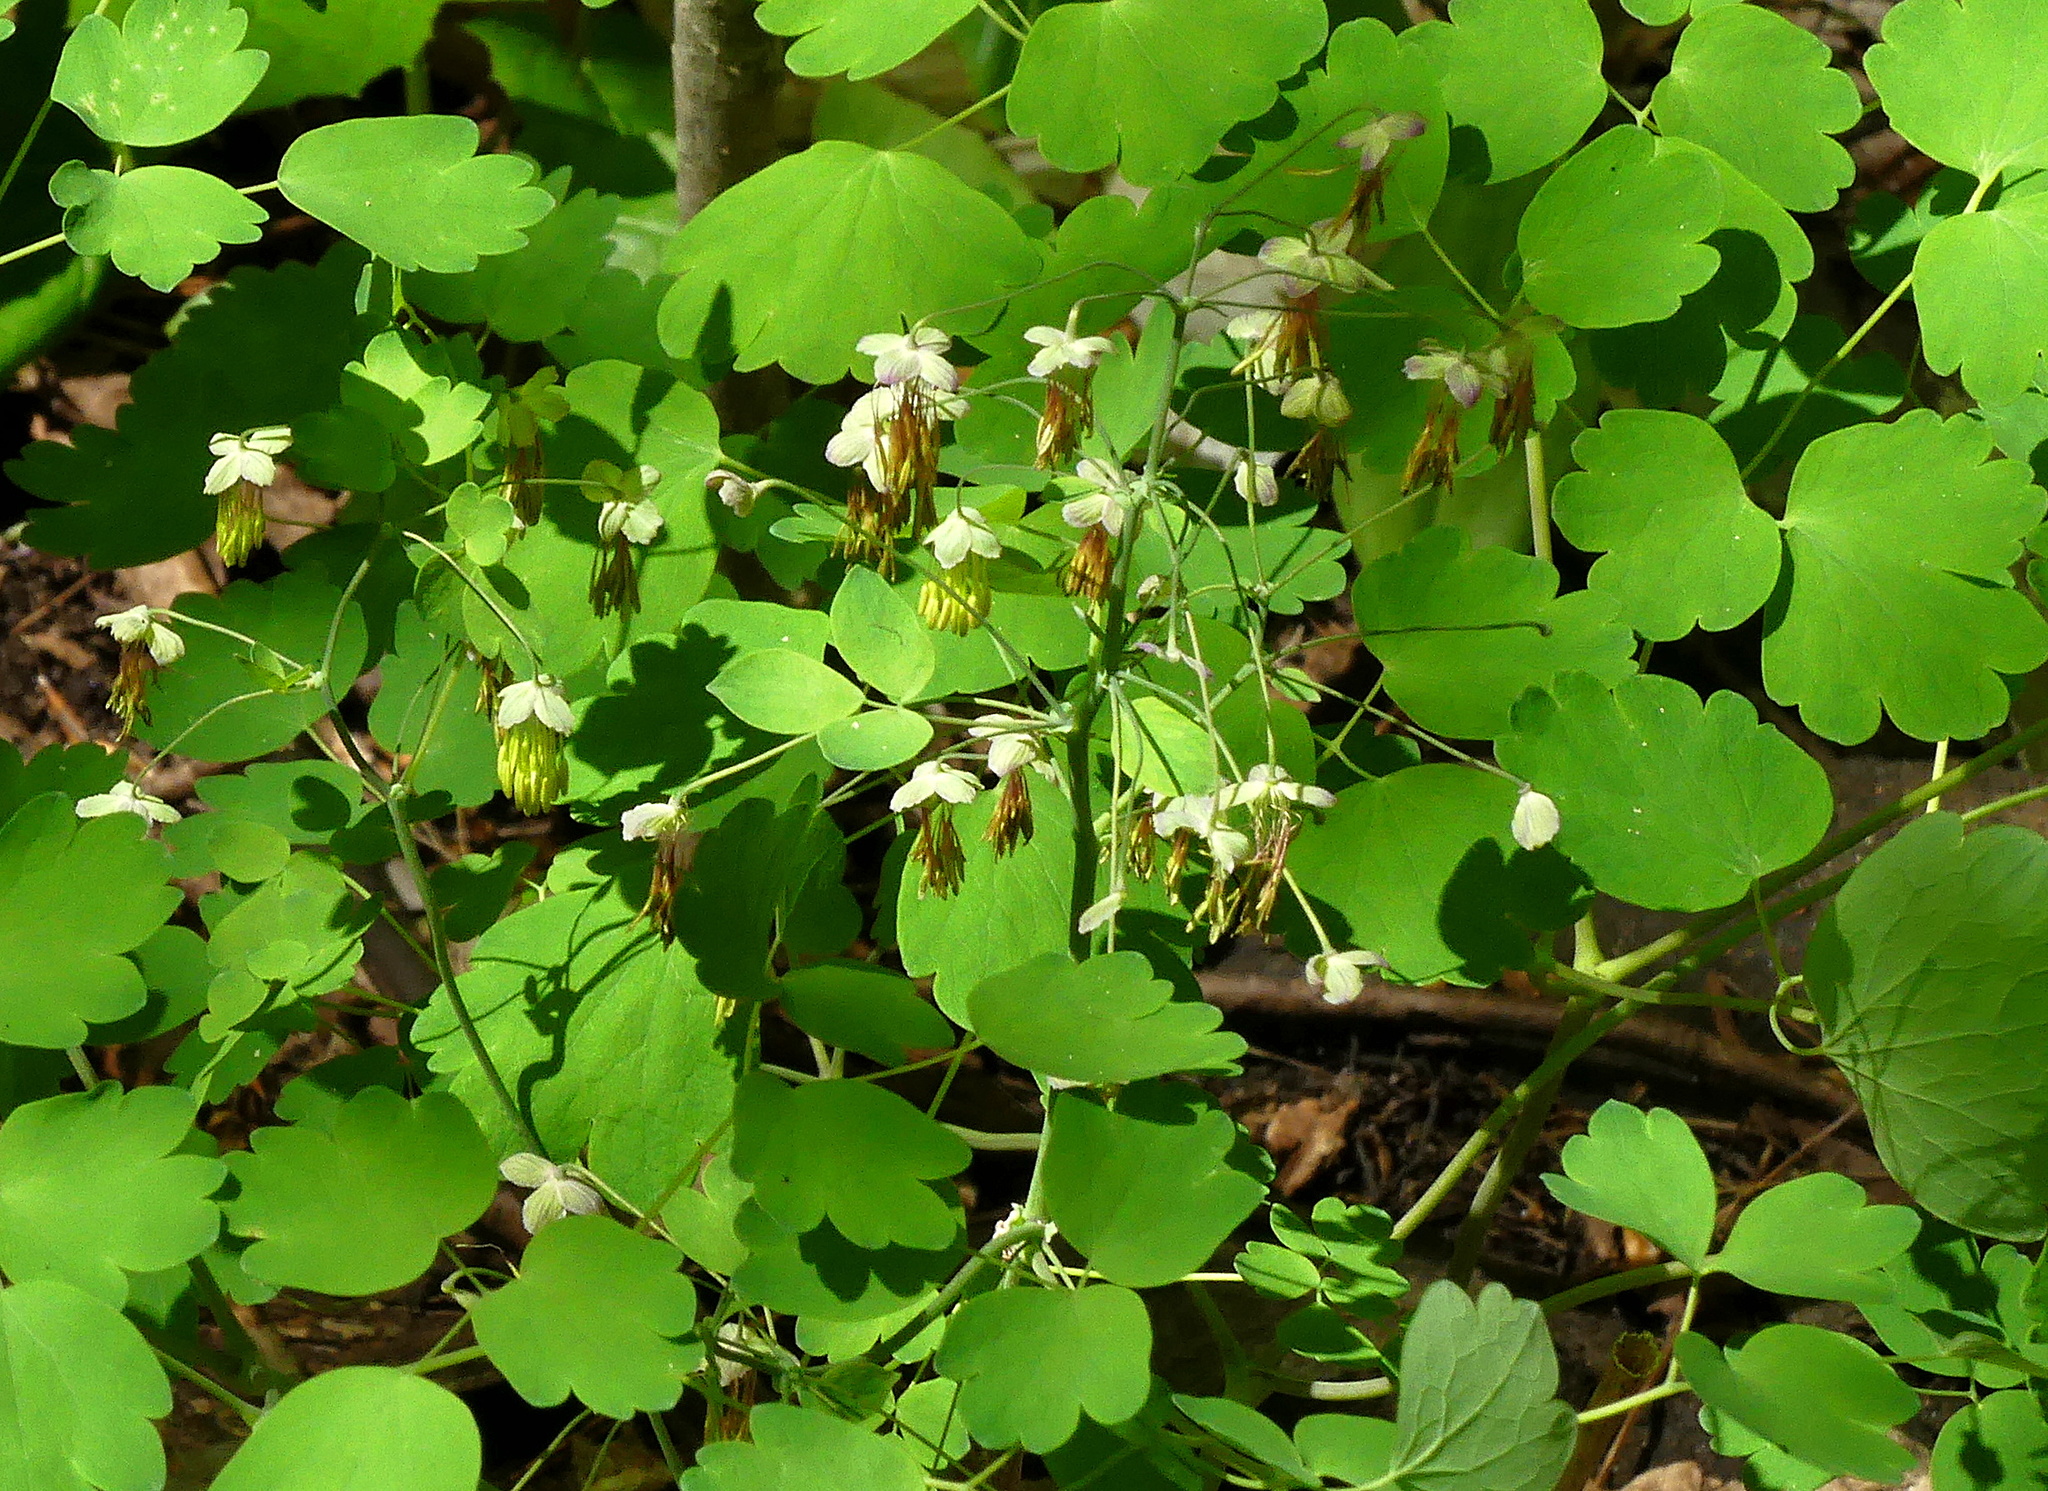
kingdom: Plantae
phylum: Tracheophyta
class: Magnoliopsida
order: Ranunculales
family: Ranunculaceae
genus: Thalictrum
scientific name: Thalictrum dioicum
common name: Early meadow-rue
